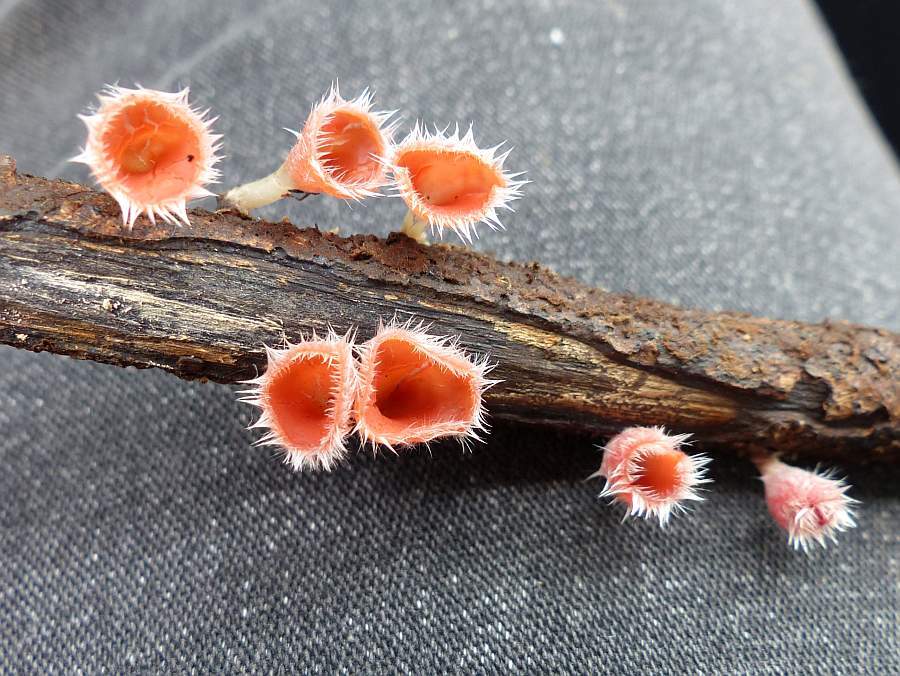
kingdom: Fungi
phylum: Ascomycota
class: Pezizomycetes
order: Pezizales
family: Sarcoscyphaceae
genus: Microstoma
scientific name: Microstoma floccosum
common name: Pink fringed faery cup
